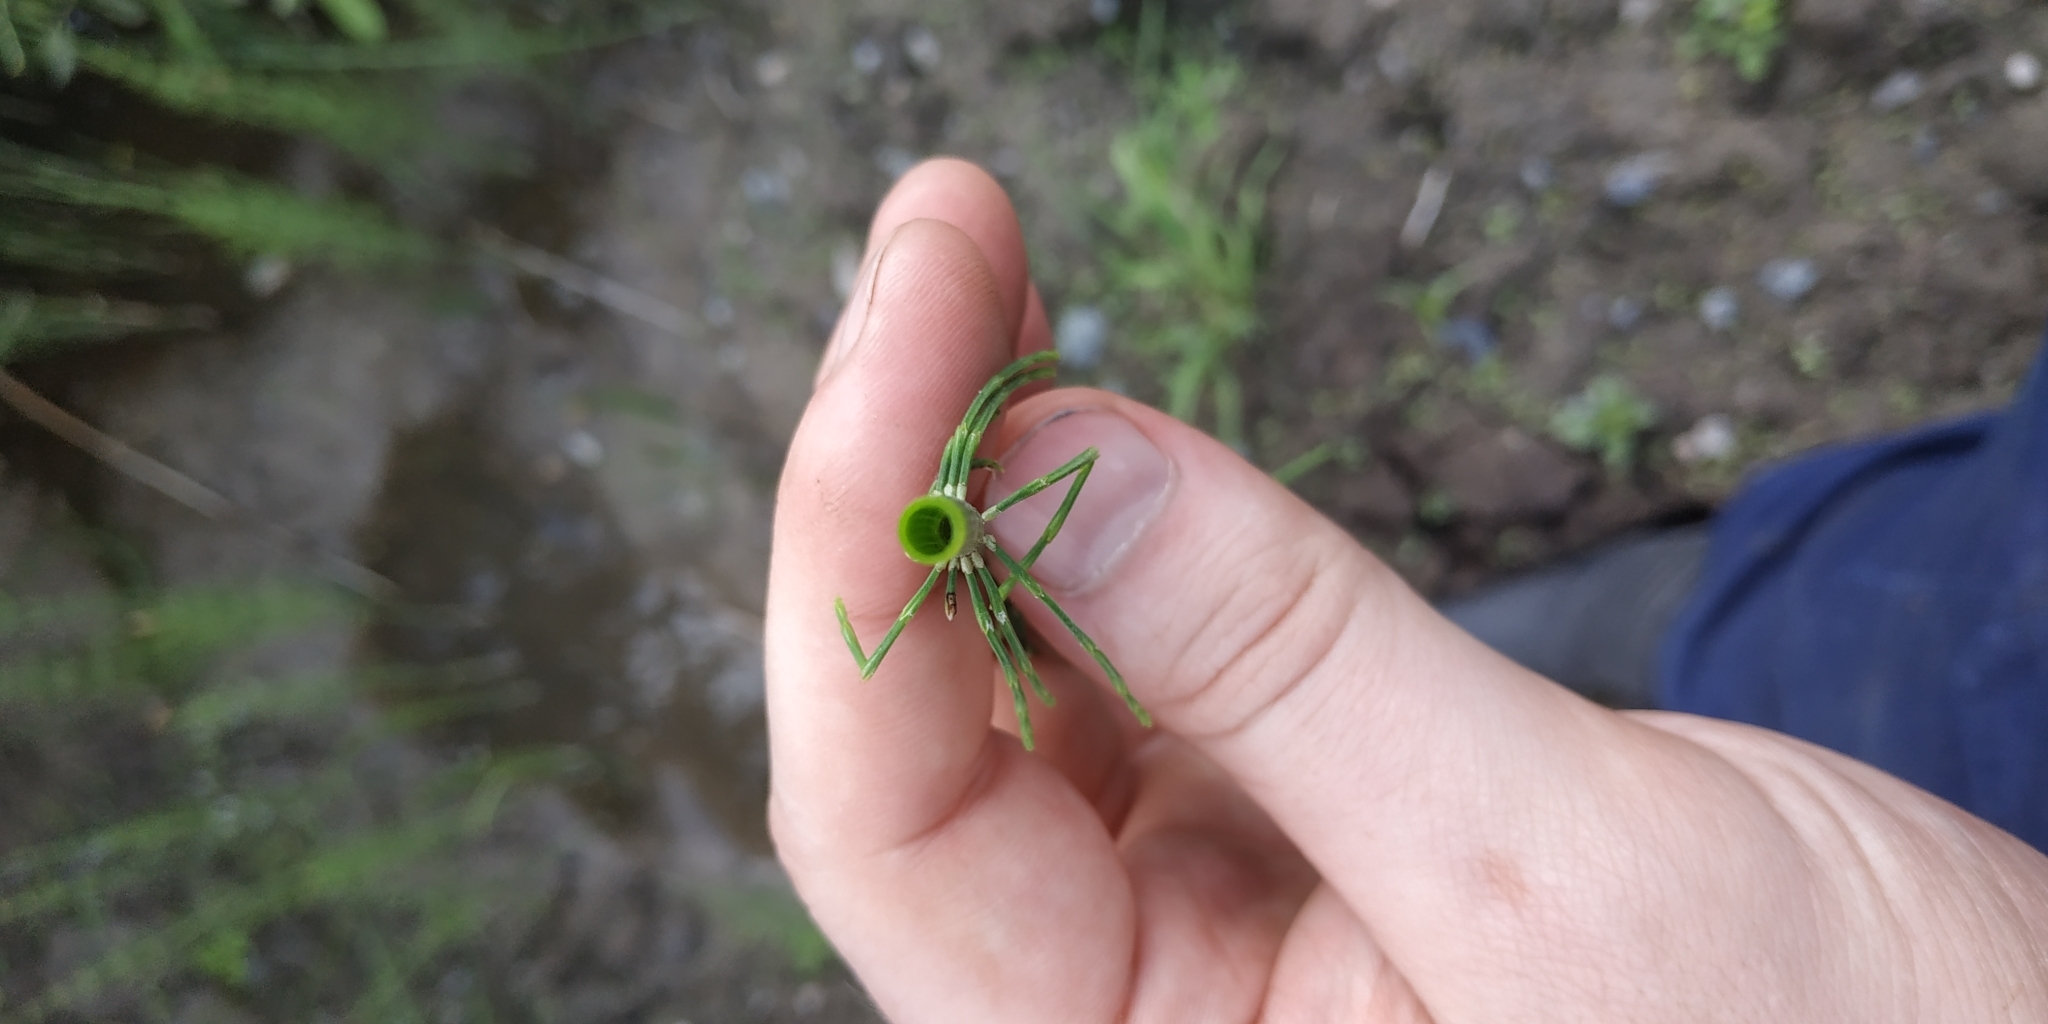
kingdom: Plantae
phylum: Tracheophyta
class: Polypodiopsida
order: Equisetales
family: Equisetaceae
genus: Equisetum
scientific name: Equisetum fluviatile
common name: Water horsetail
